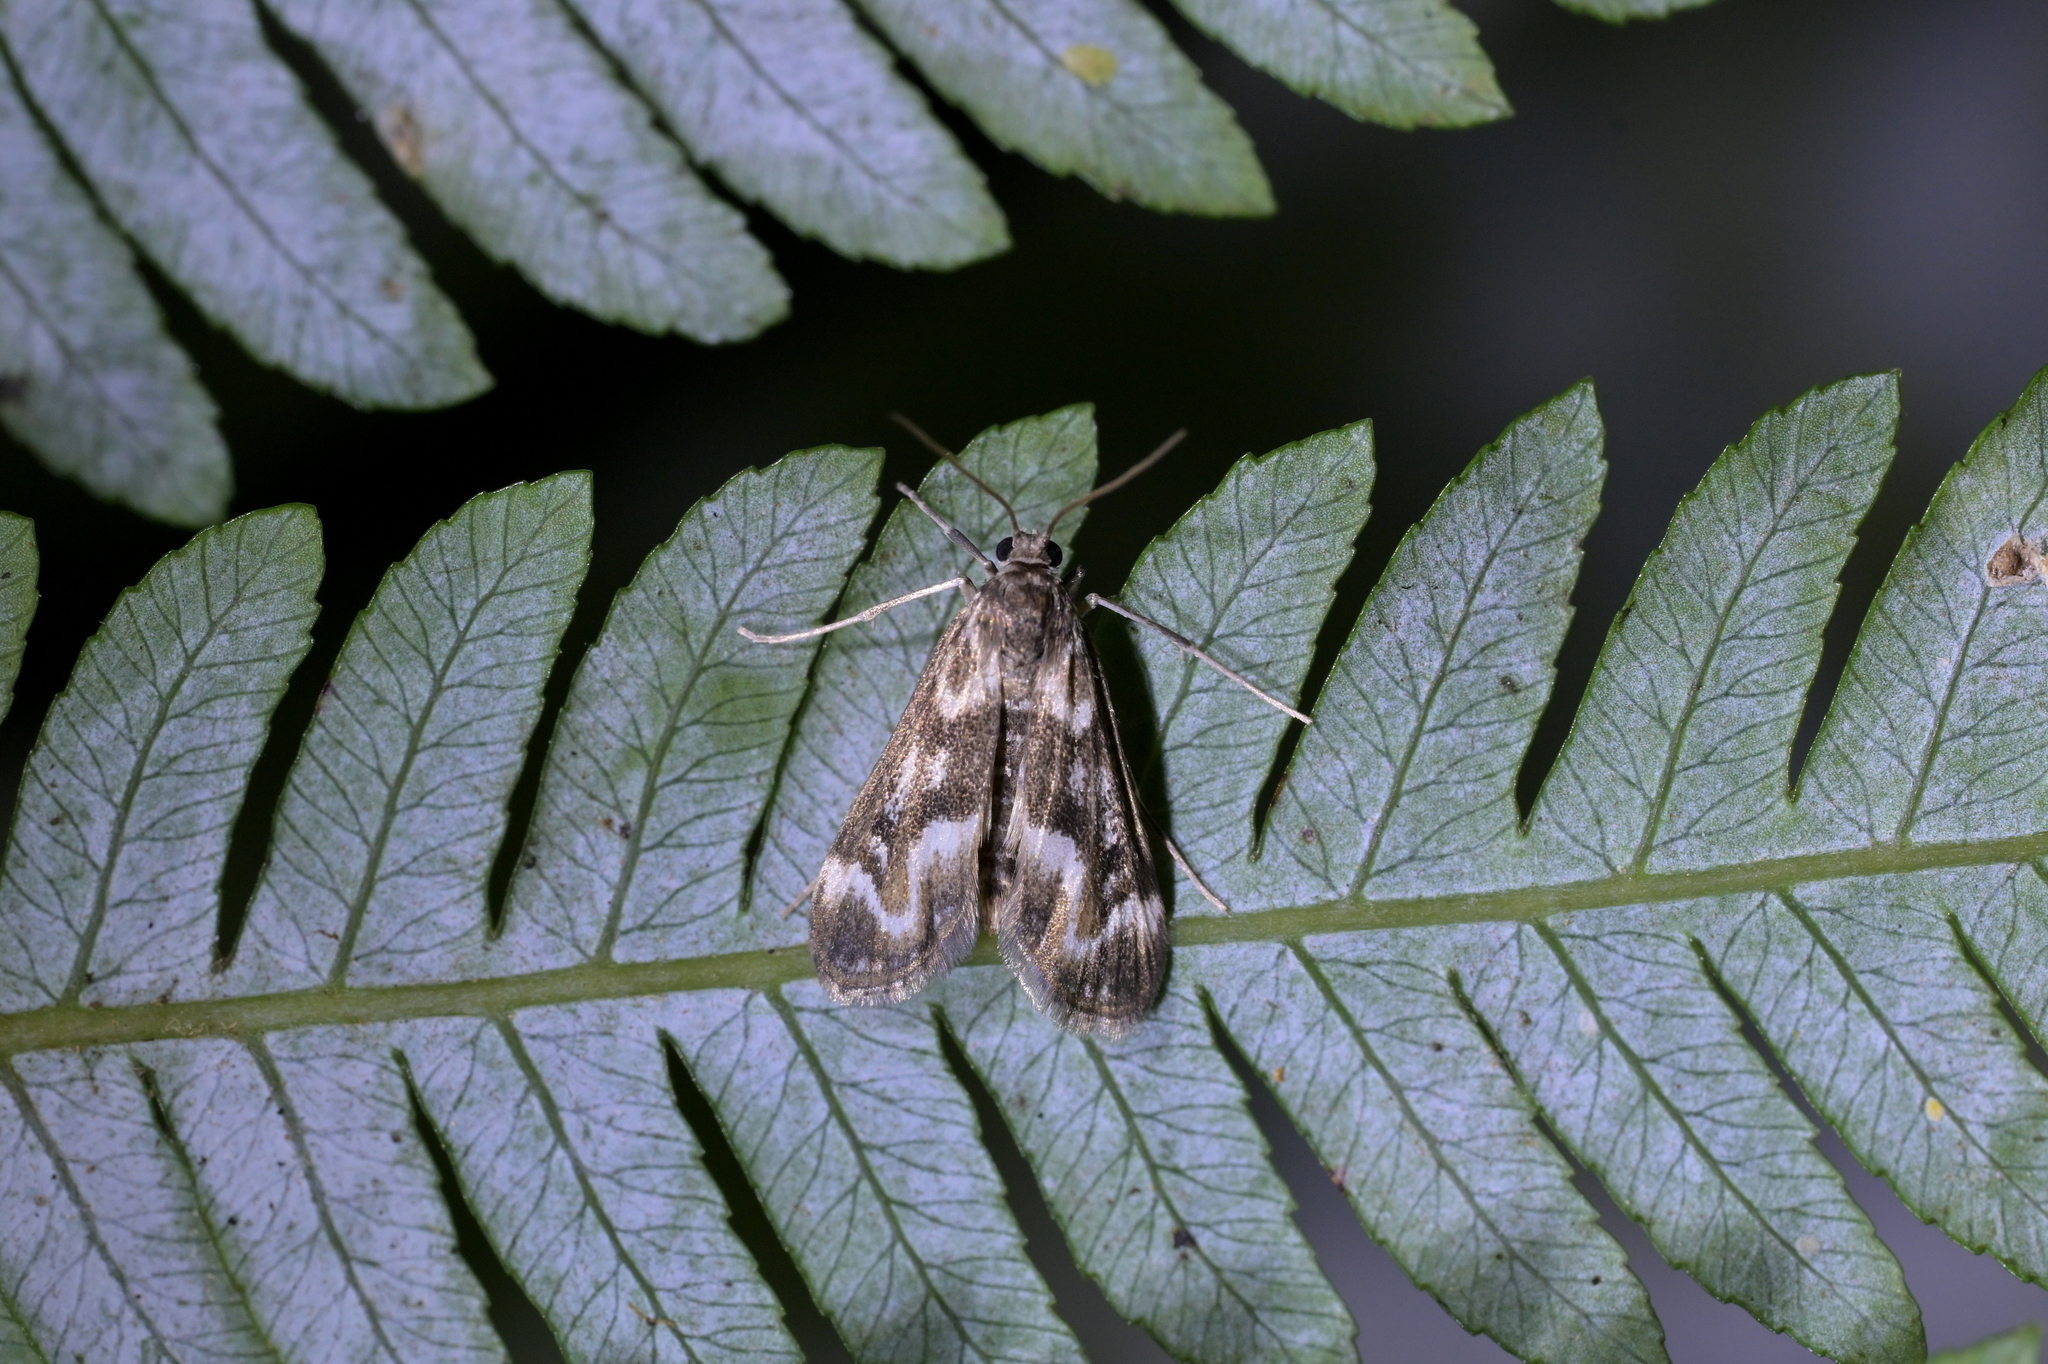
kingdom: Animalia
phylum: Arthropoda
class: Insecta
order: Lepidoptera
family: Crambidae
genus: Hygraula
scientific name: Hygraula nitens
